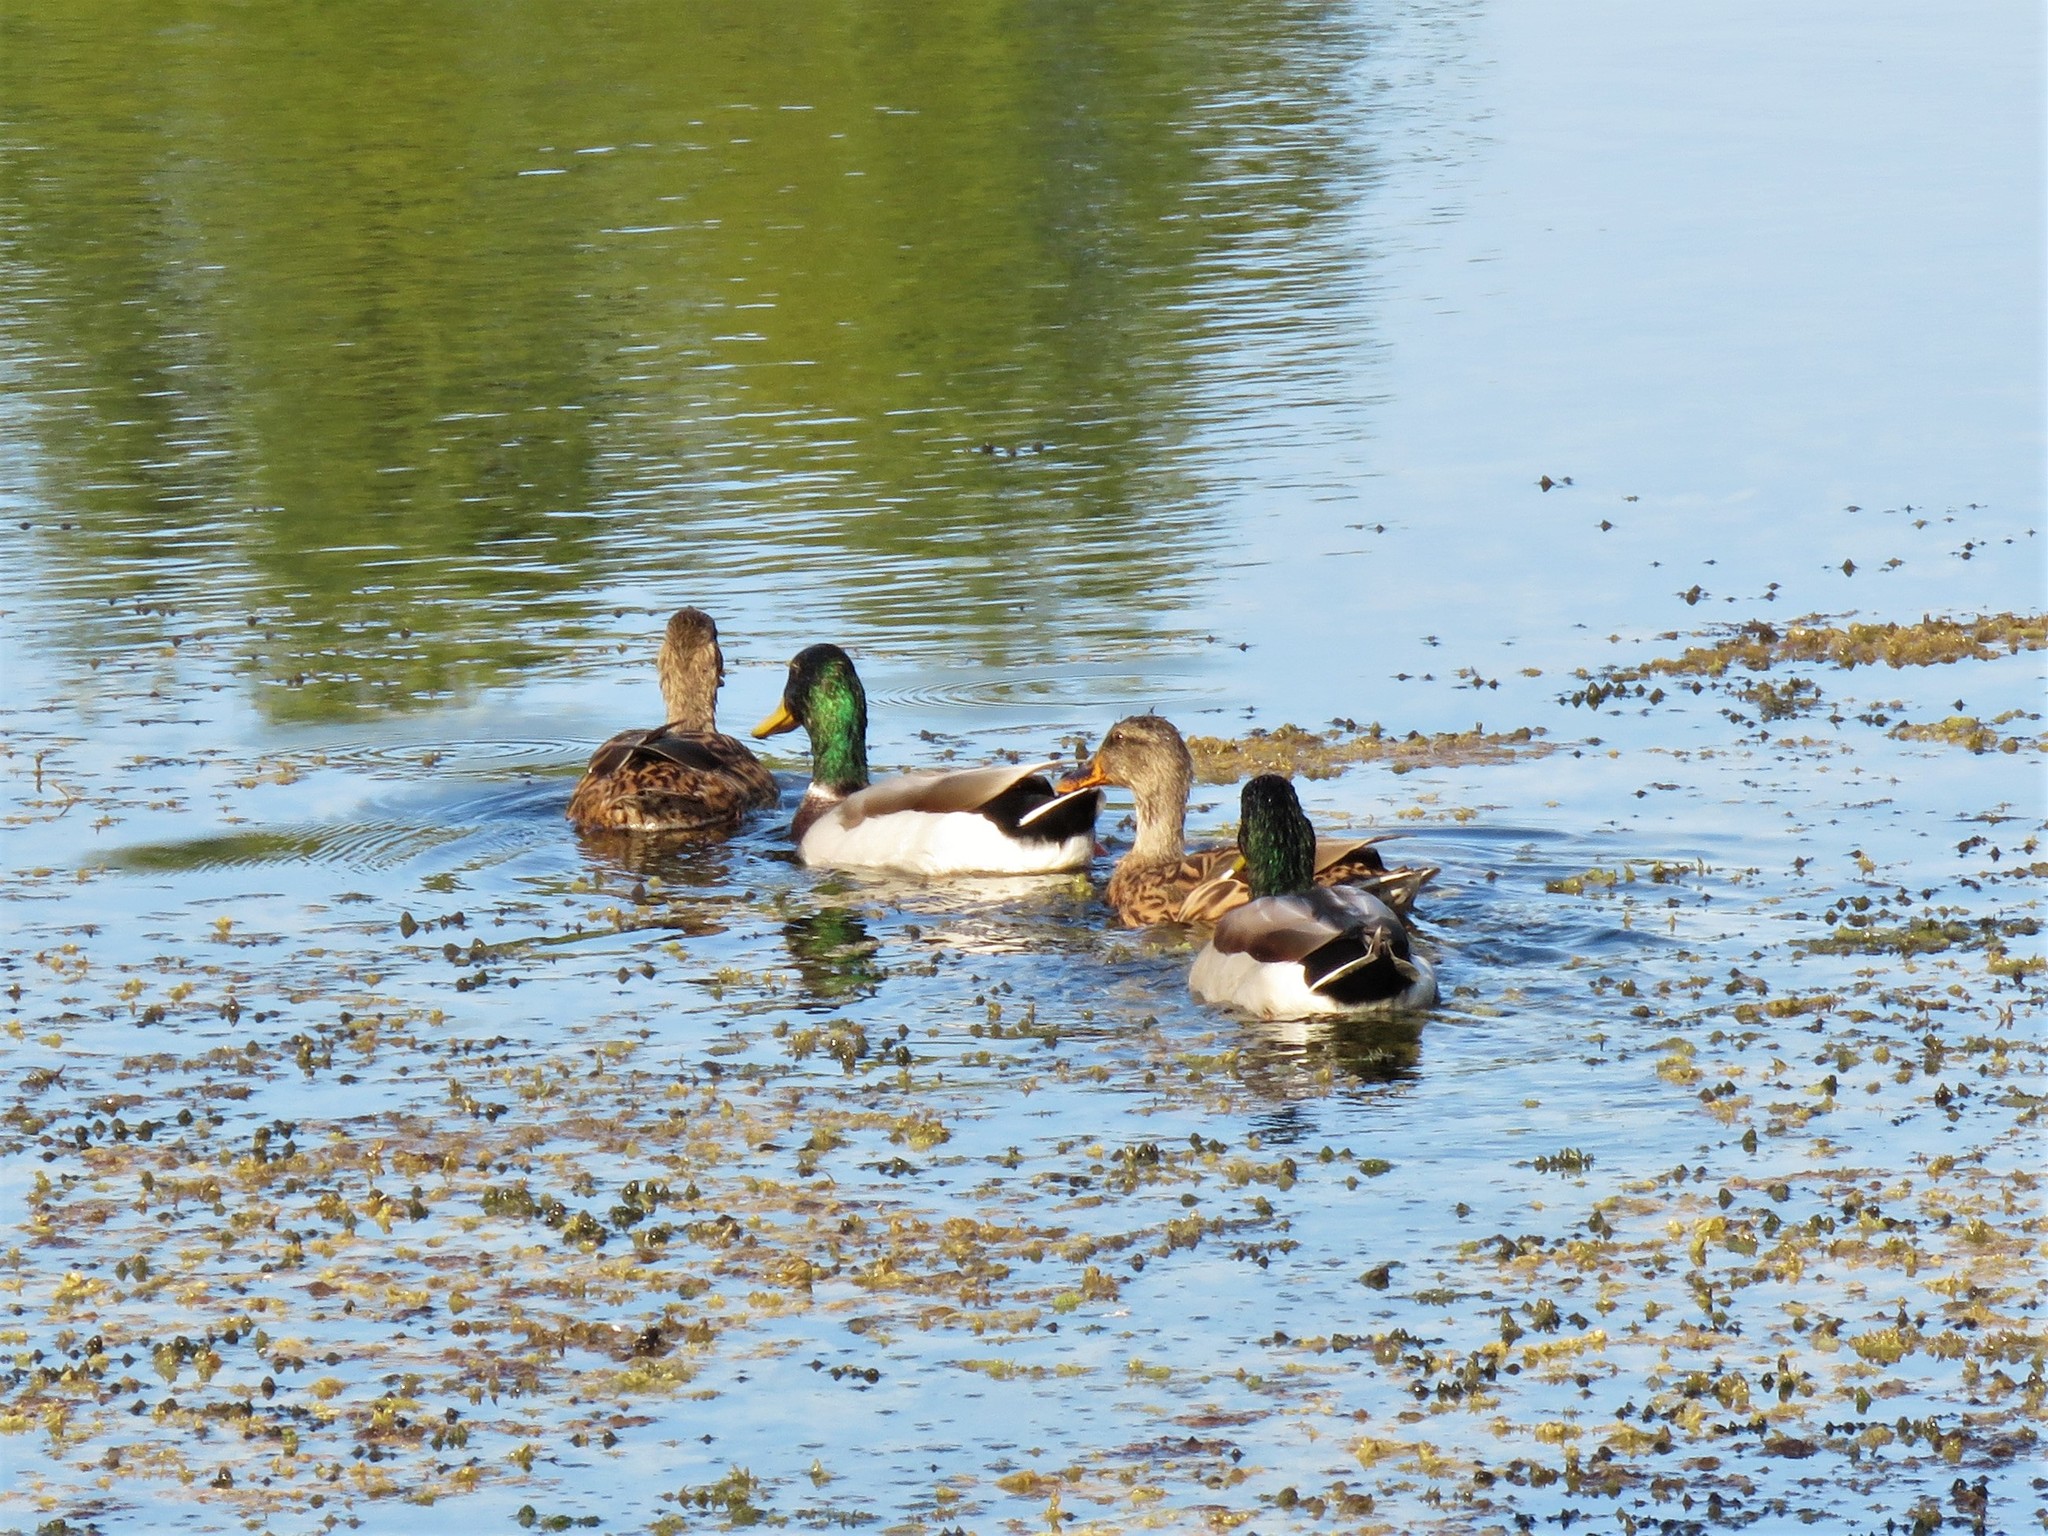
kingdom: Animalia
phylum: Chordata
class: Aves
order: Anseriformes
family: Anatidae
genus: Anas
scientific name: Anas platyrhynchos
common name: Mallard
